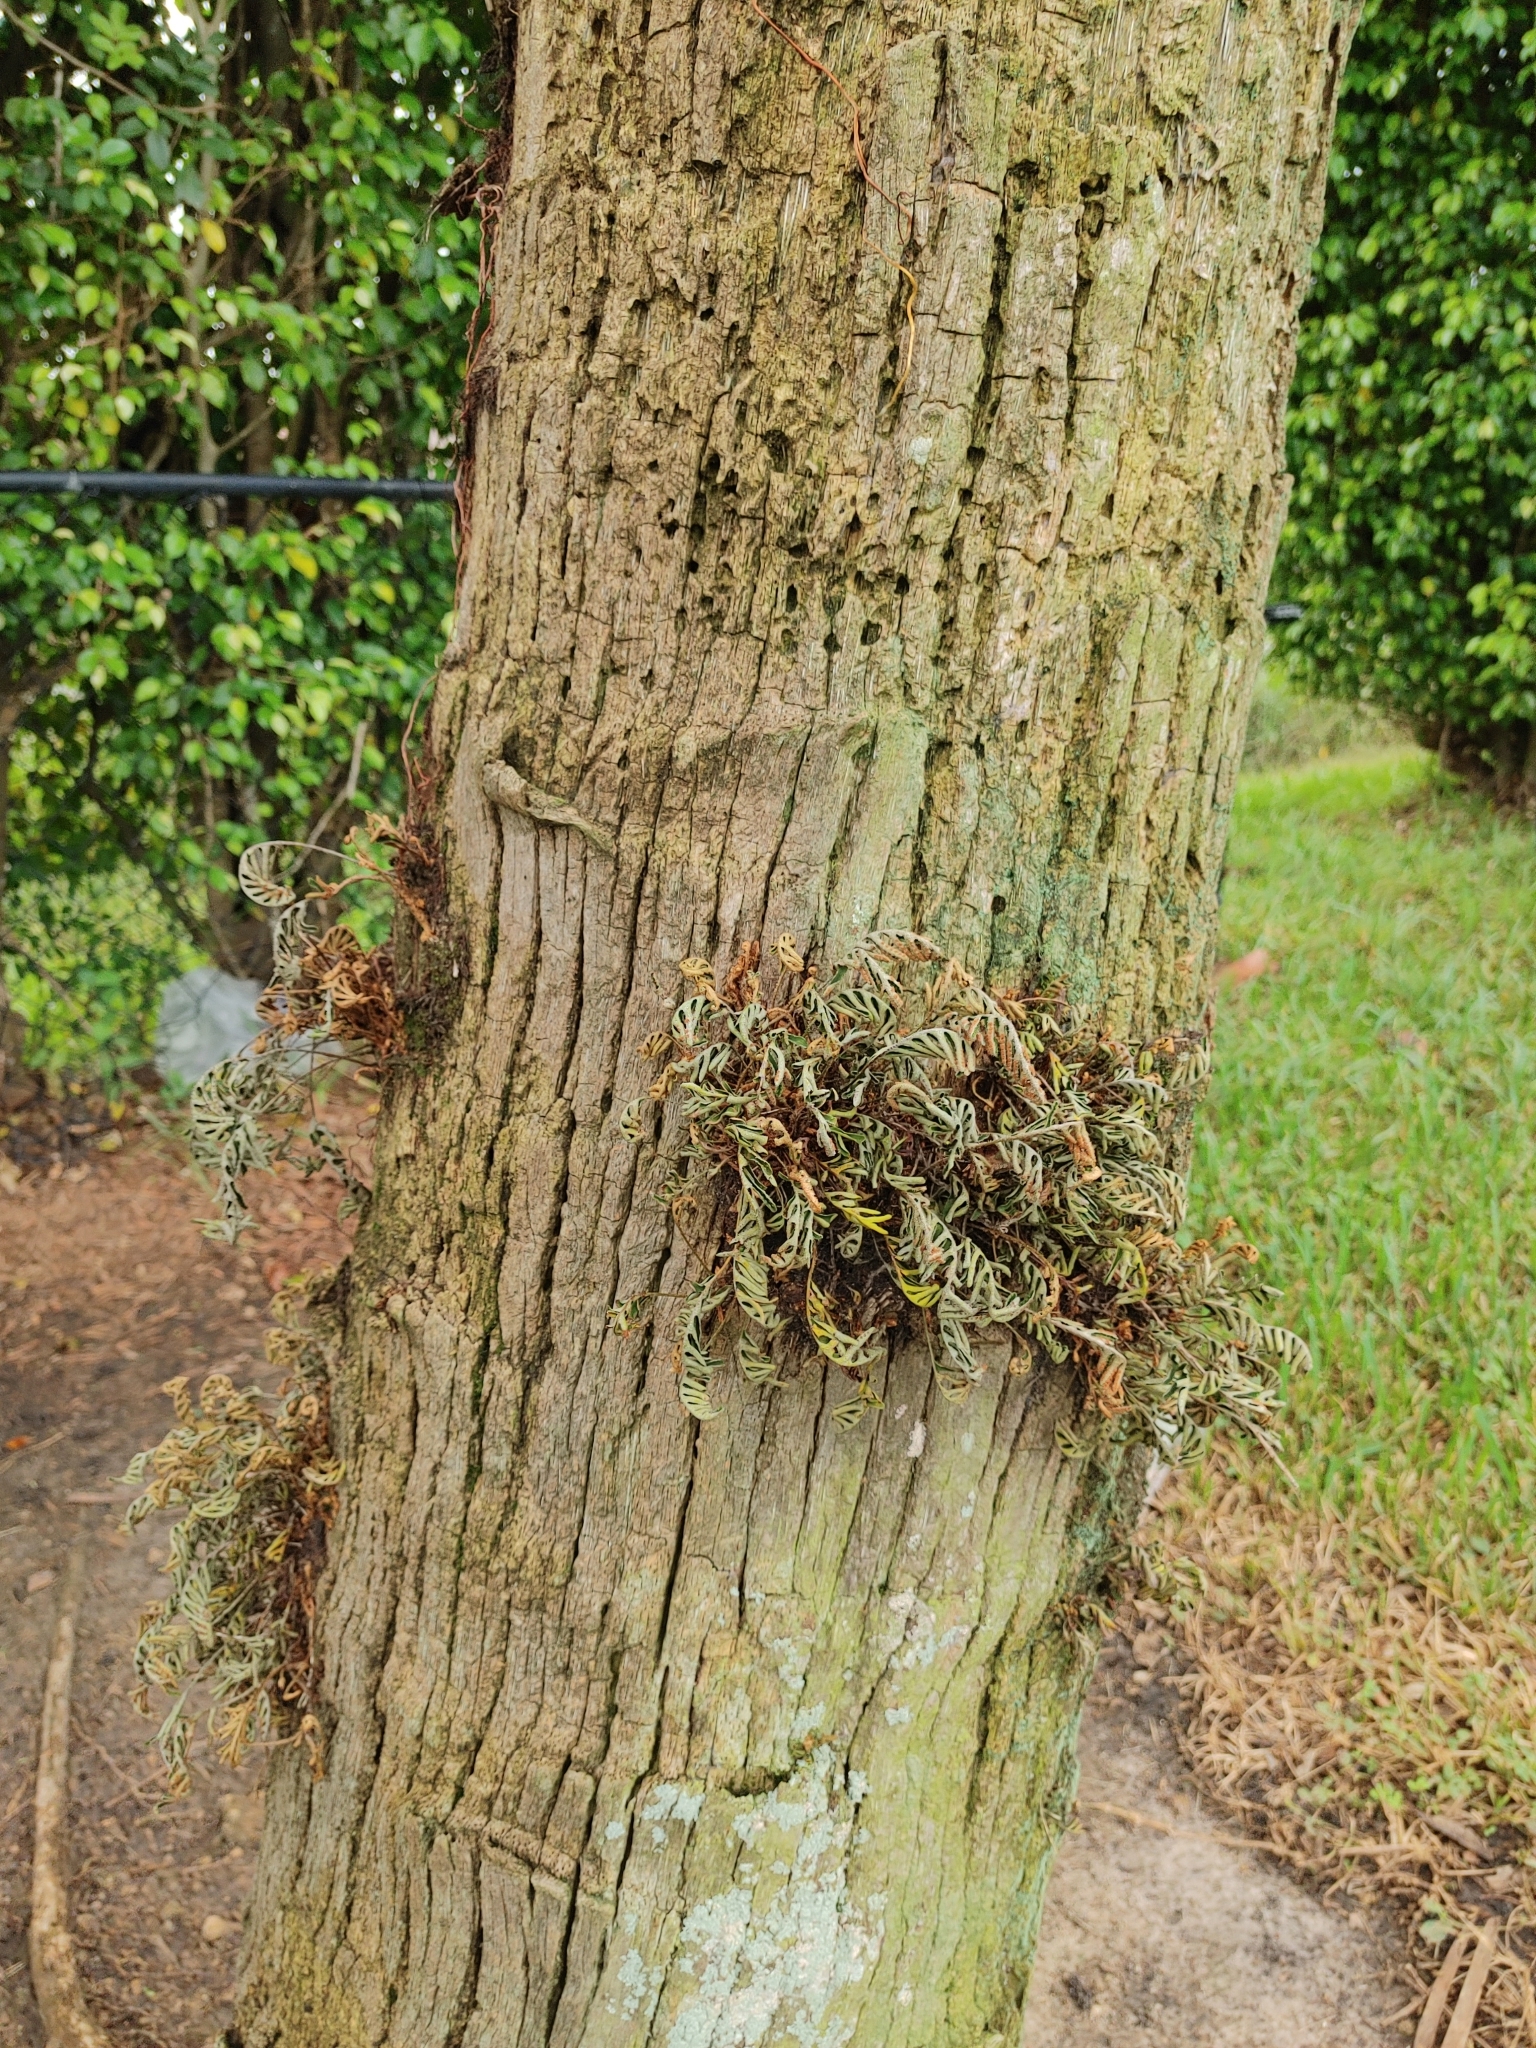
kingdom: Plantae
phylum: Tracheophyta
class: Polypodiopsida
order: Polypodiales
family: Polypodiaceae
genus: Pleopeltis
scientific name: Pleopeltis michauxiana
